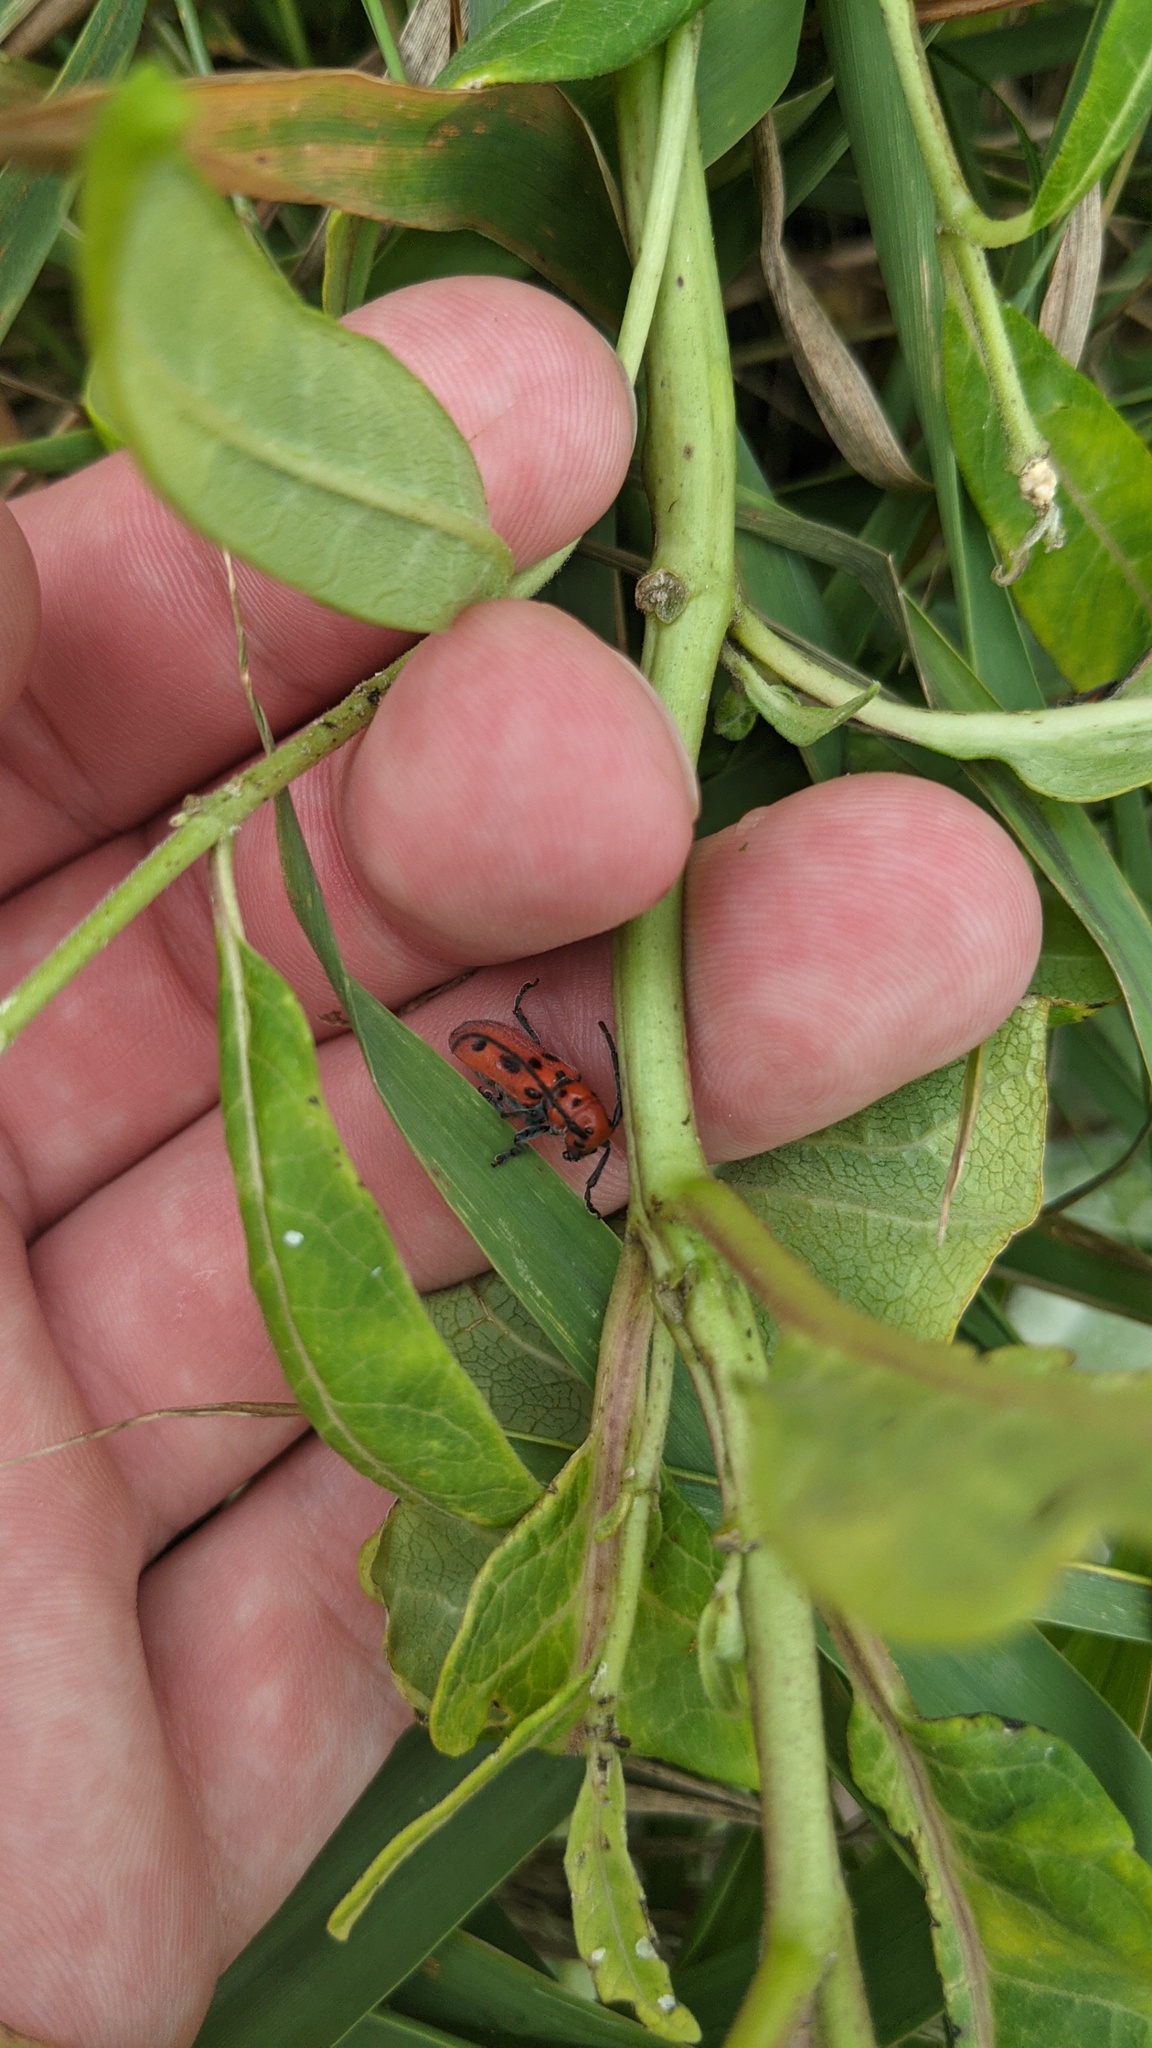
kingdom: Animalia
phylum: Arthropoda
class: Insecta
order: Coleoptera
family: Cerambycidae
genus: Tetraopes
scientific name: Tetraopes tetrophthalmus
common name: Red milkweed beetle
